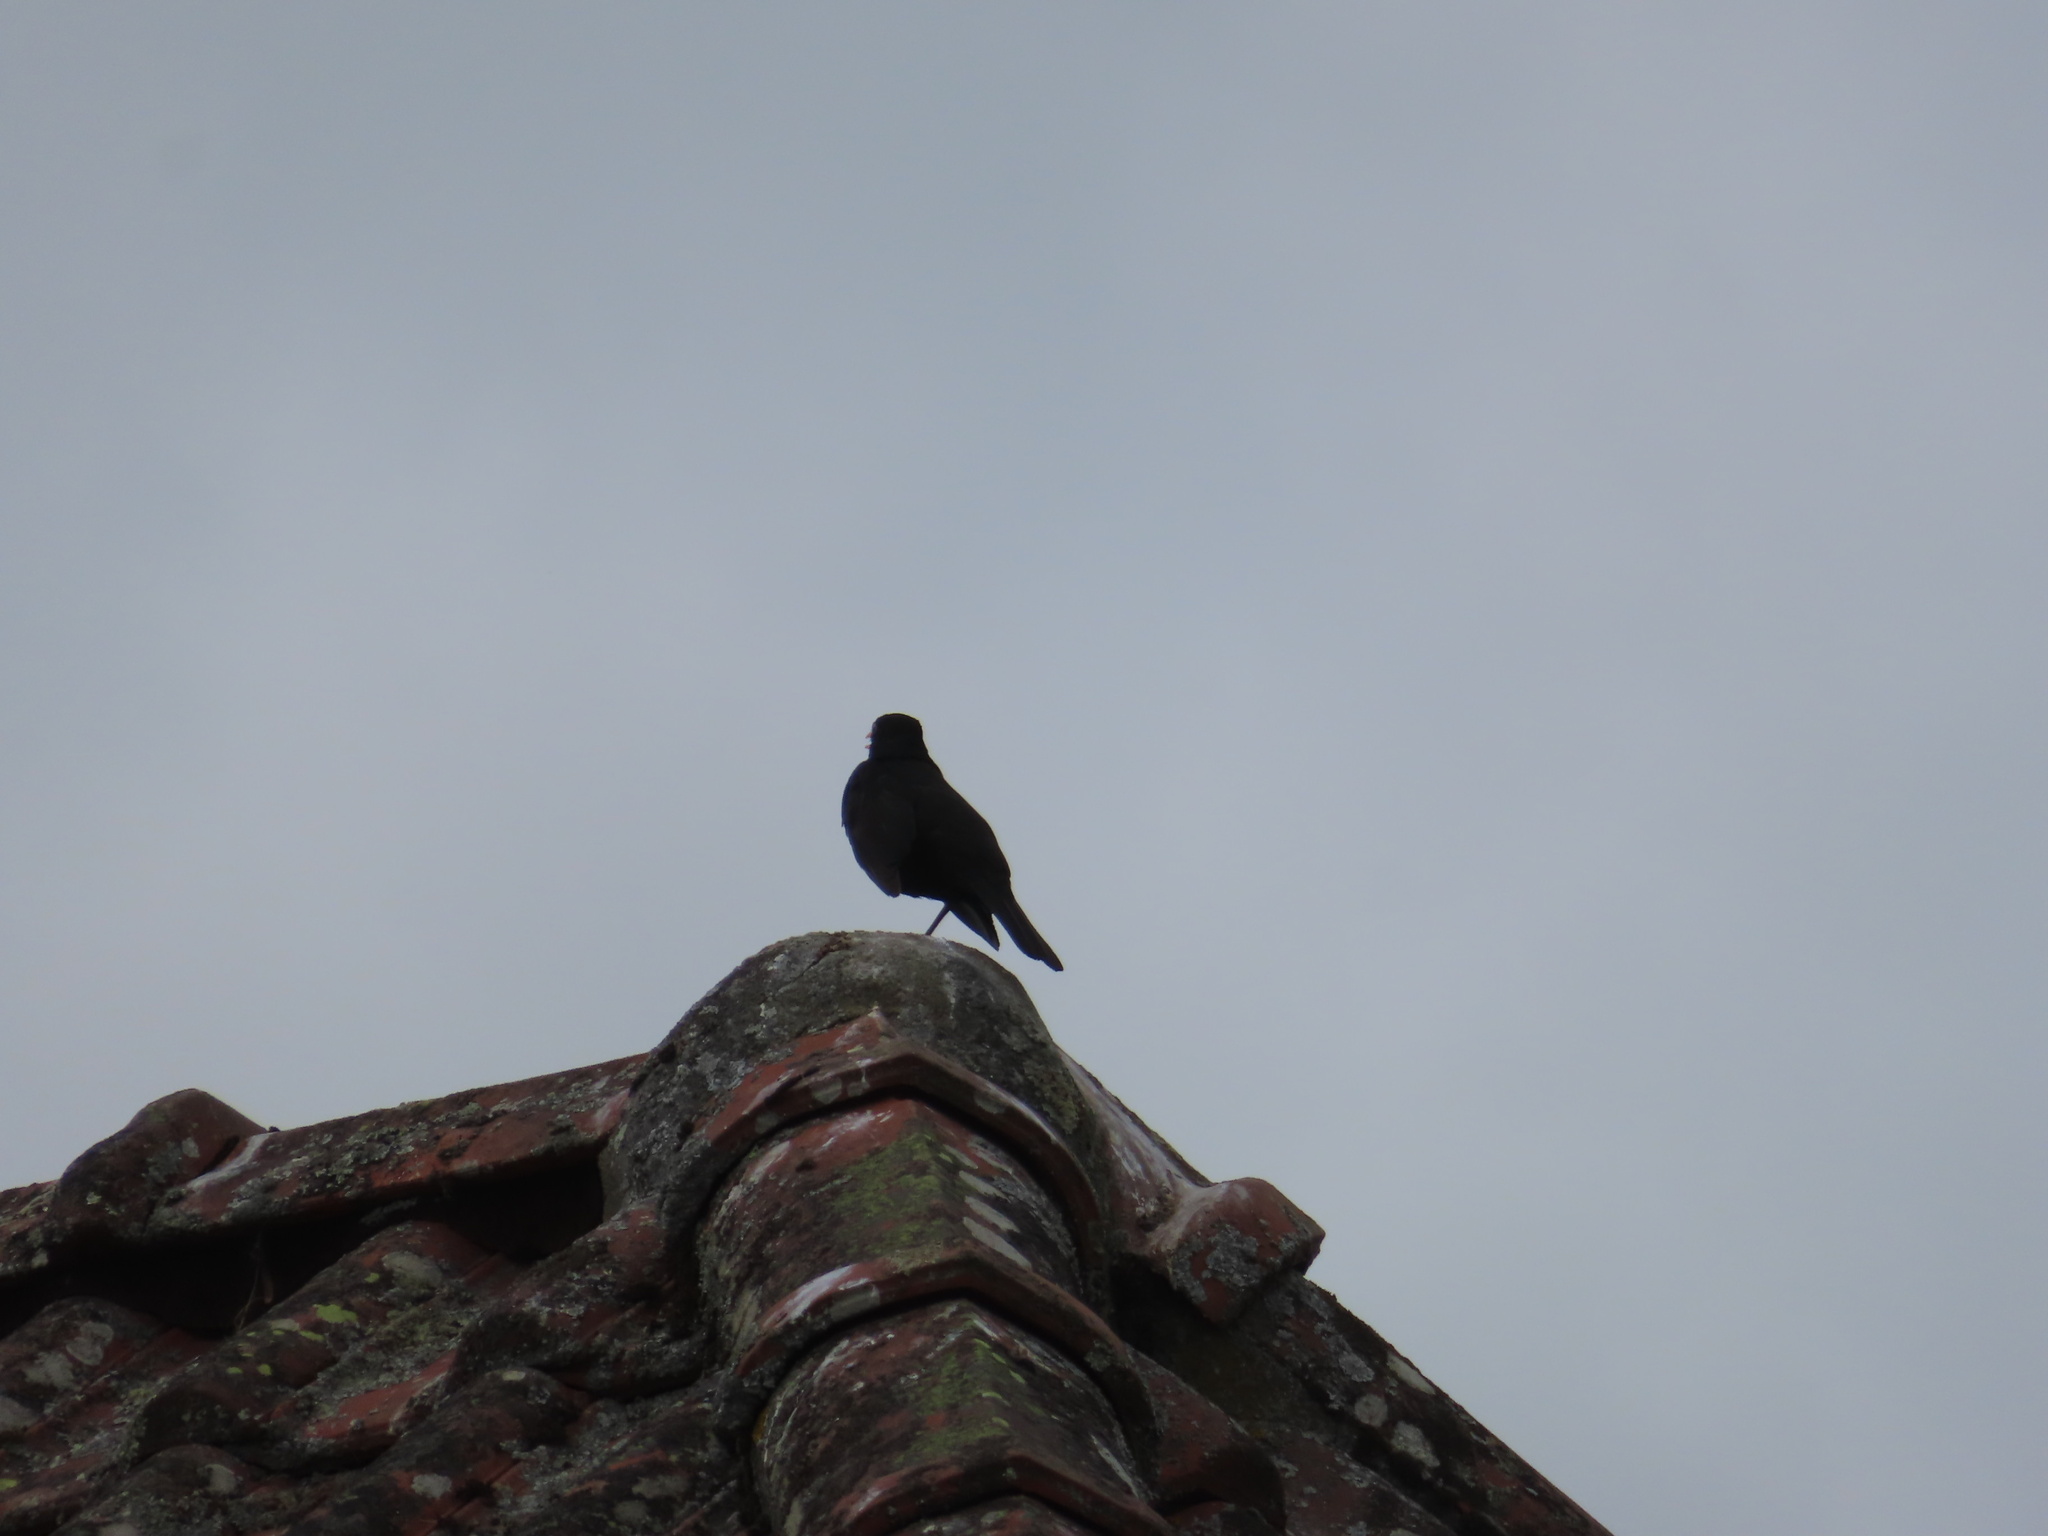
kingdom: Animalia
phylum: Chordata
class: Aves
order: Passeriformes
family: Turdidae
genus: Turdus
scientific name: Turdus merula
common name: Common blackbird
